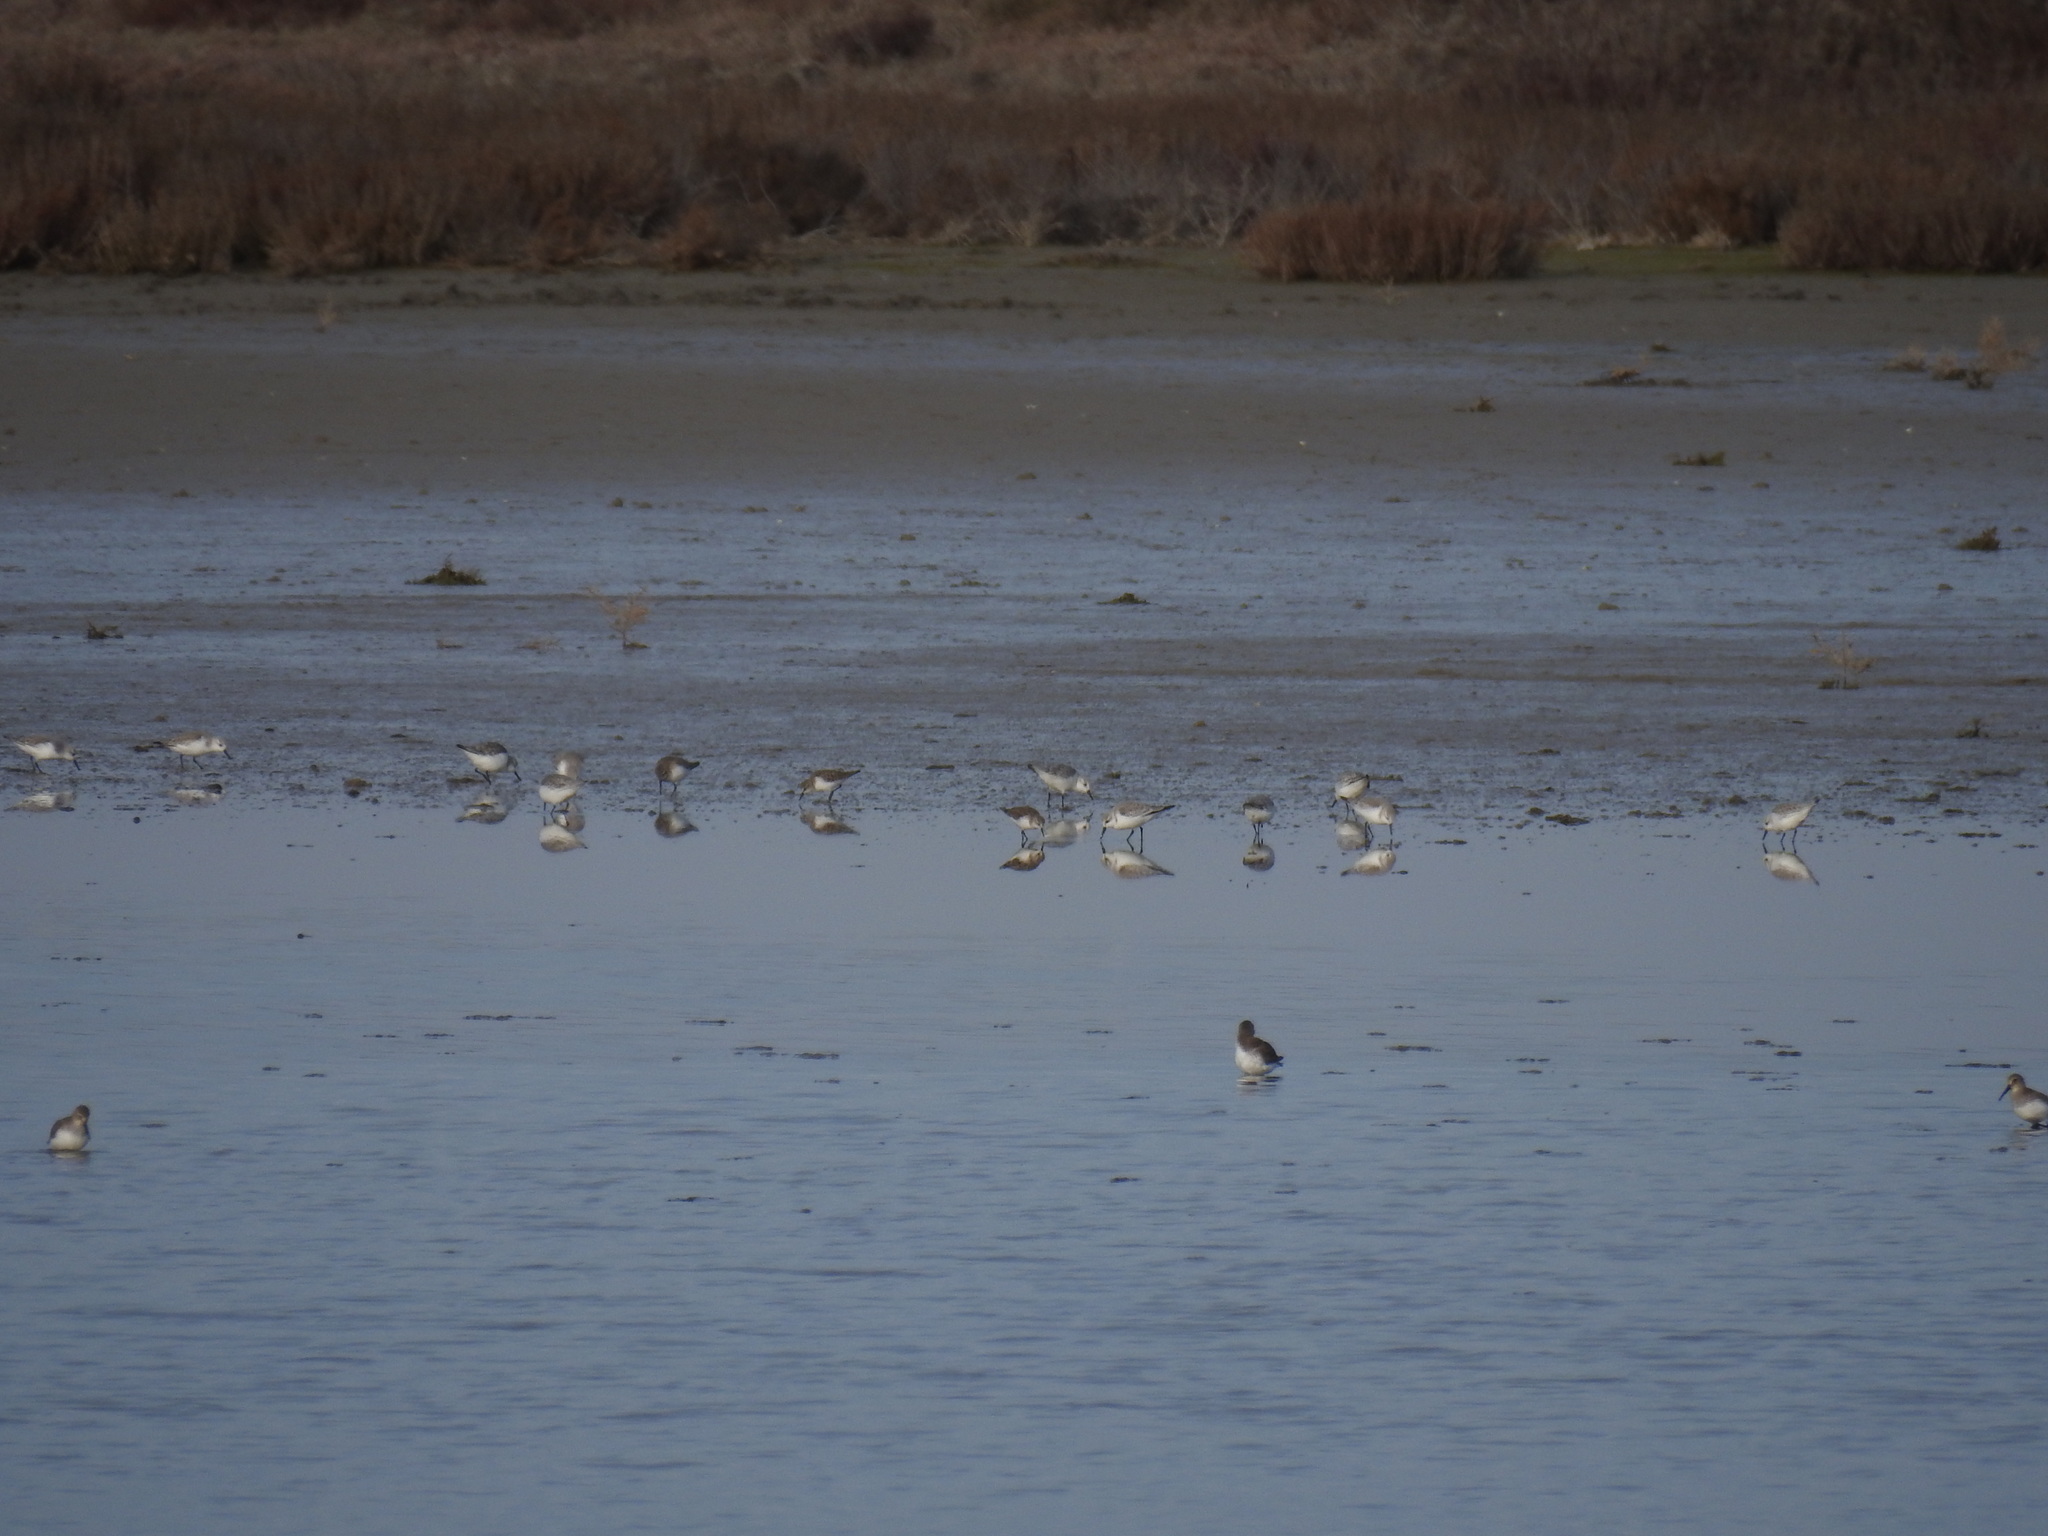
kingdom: Animalia
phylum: Chordata
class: Aves
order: Charadriiformes
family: Scolopacidae
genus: Calidris
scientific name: Calidris alba
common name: Sanderling
